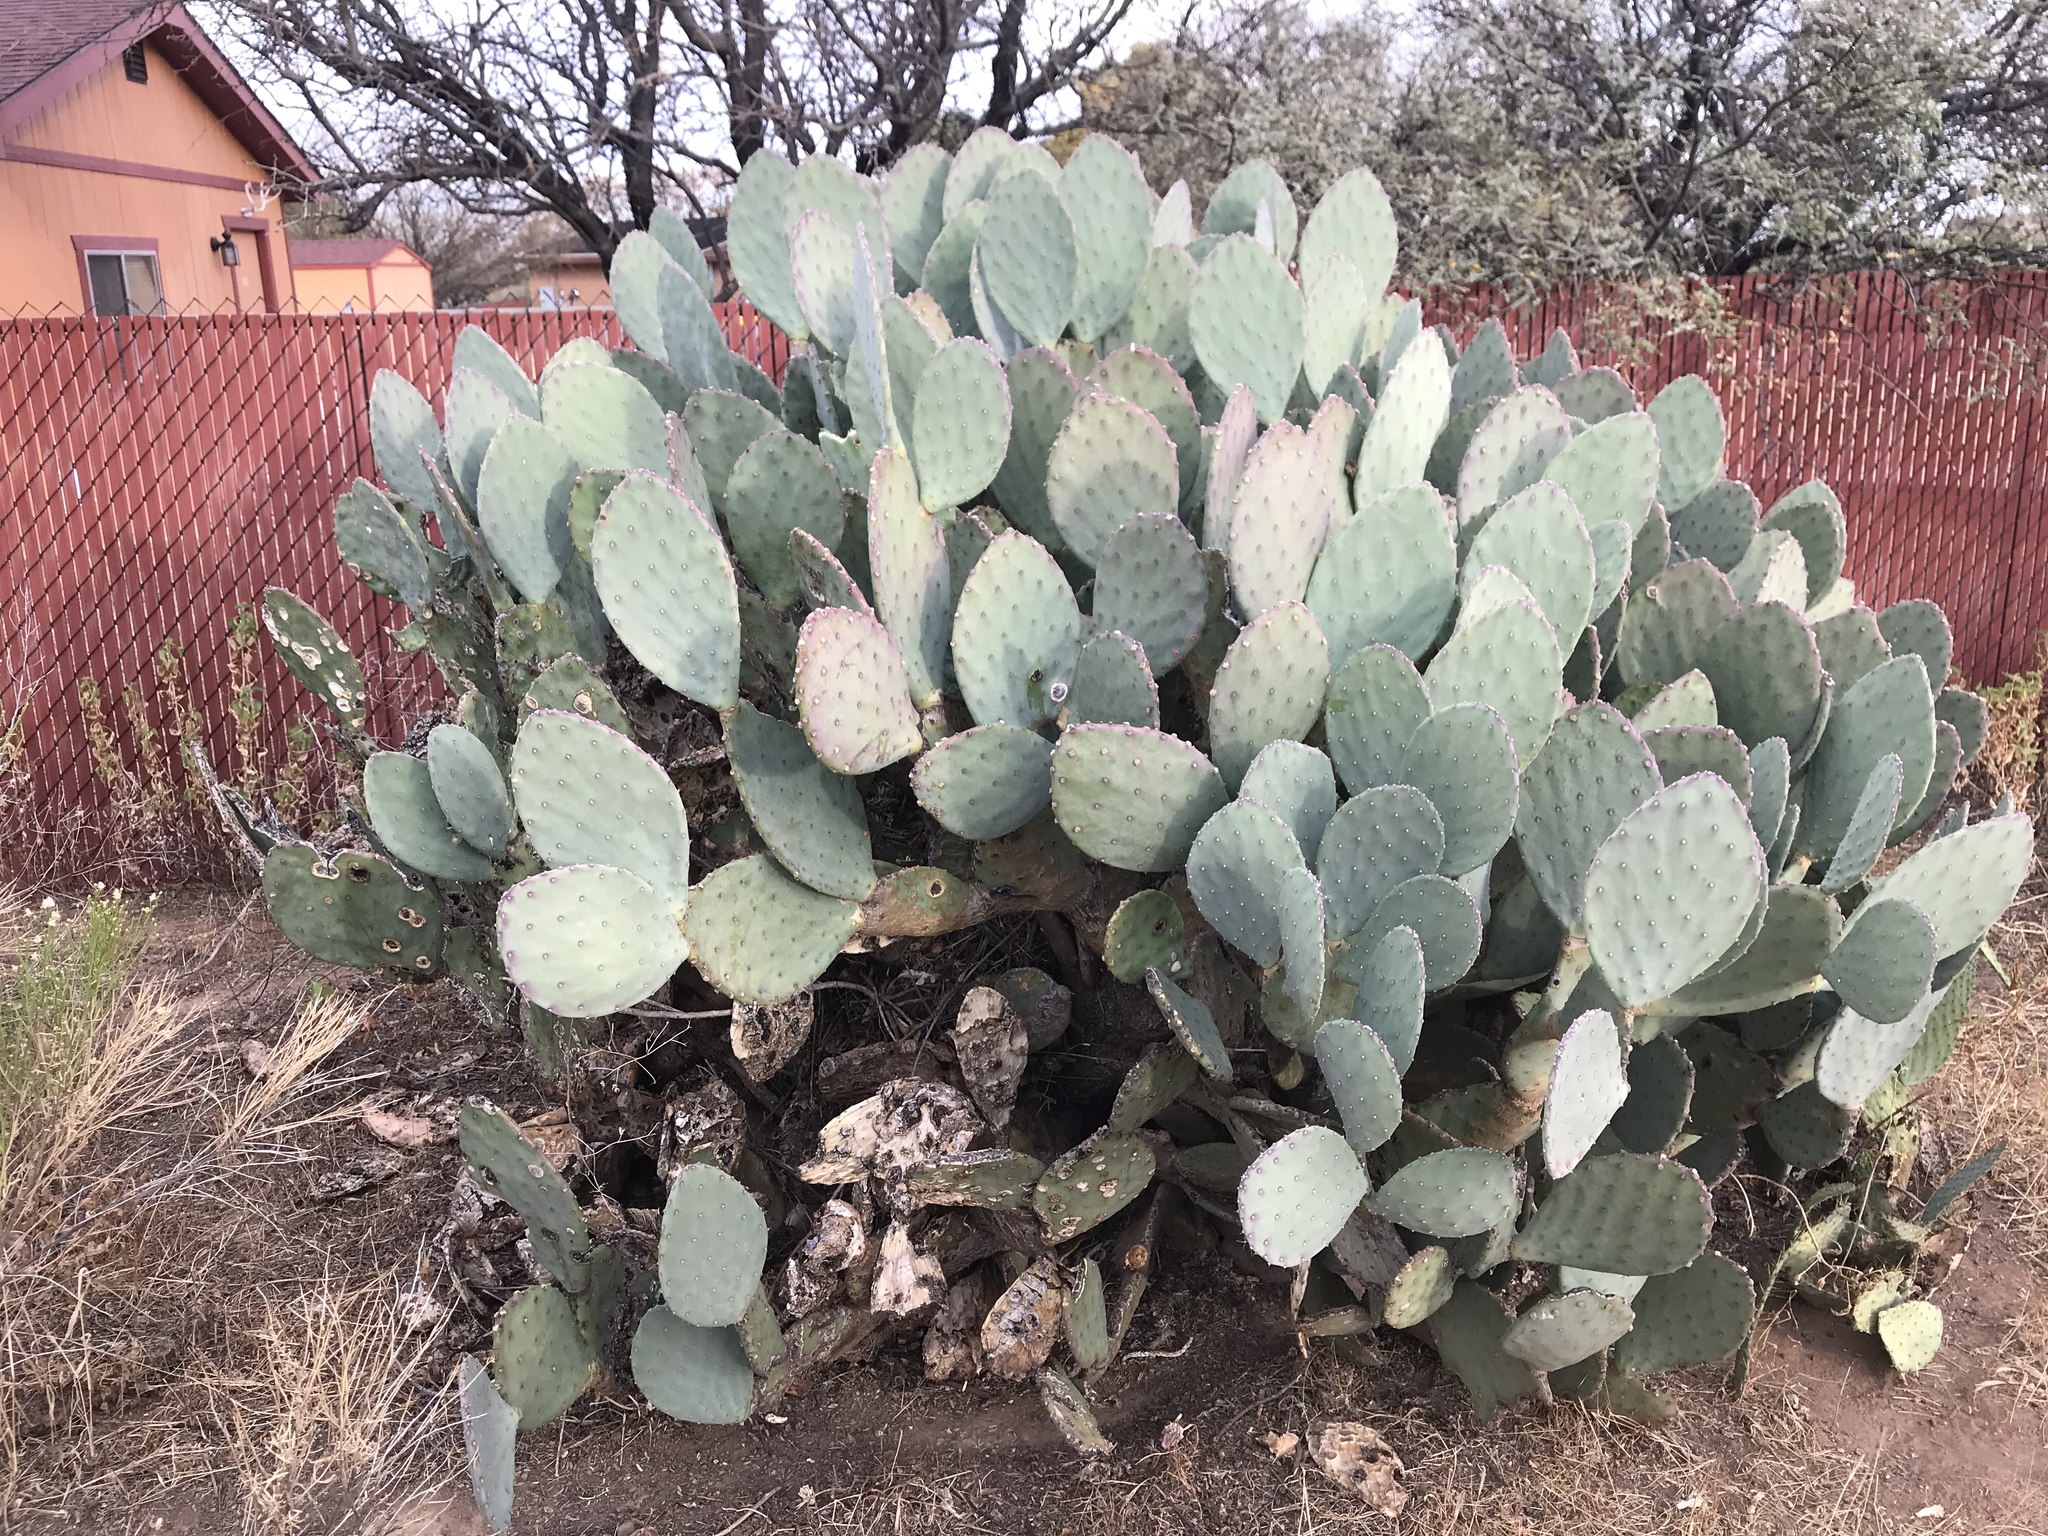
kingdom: Plantae
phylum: Tracheophyta
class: Magnoliopsida
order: Caryophyllales
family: Cactaceae
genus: Opuntia
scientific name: Opuntia engelmannii
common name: Cactus-apple
